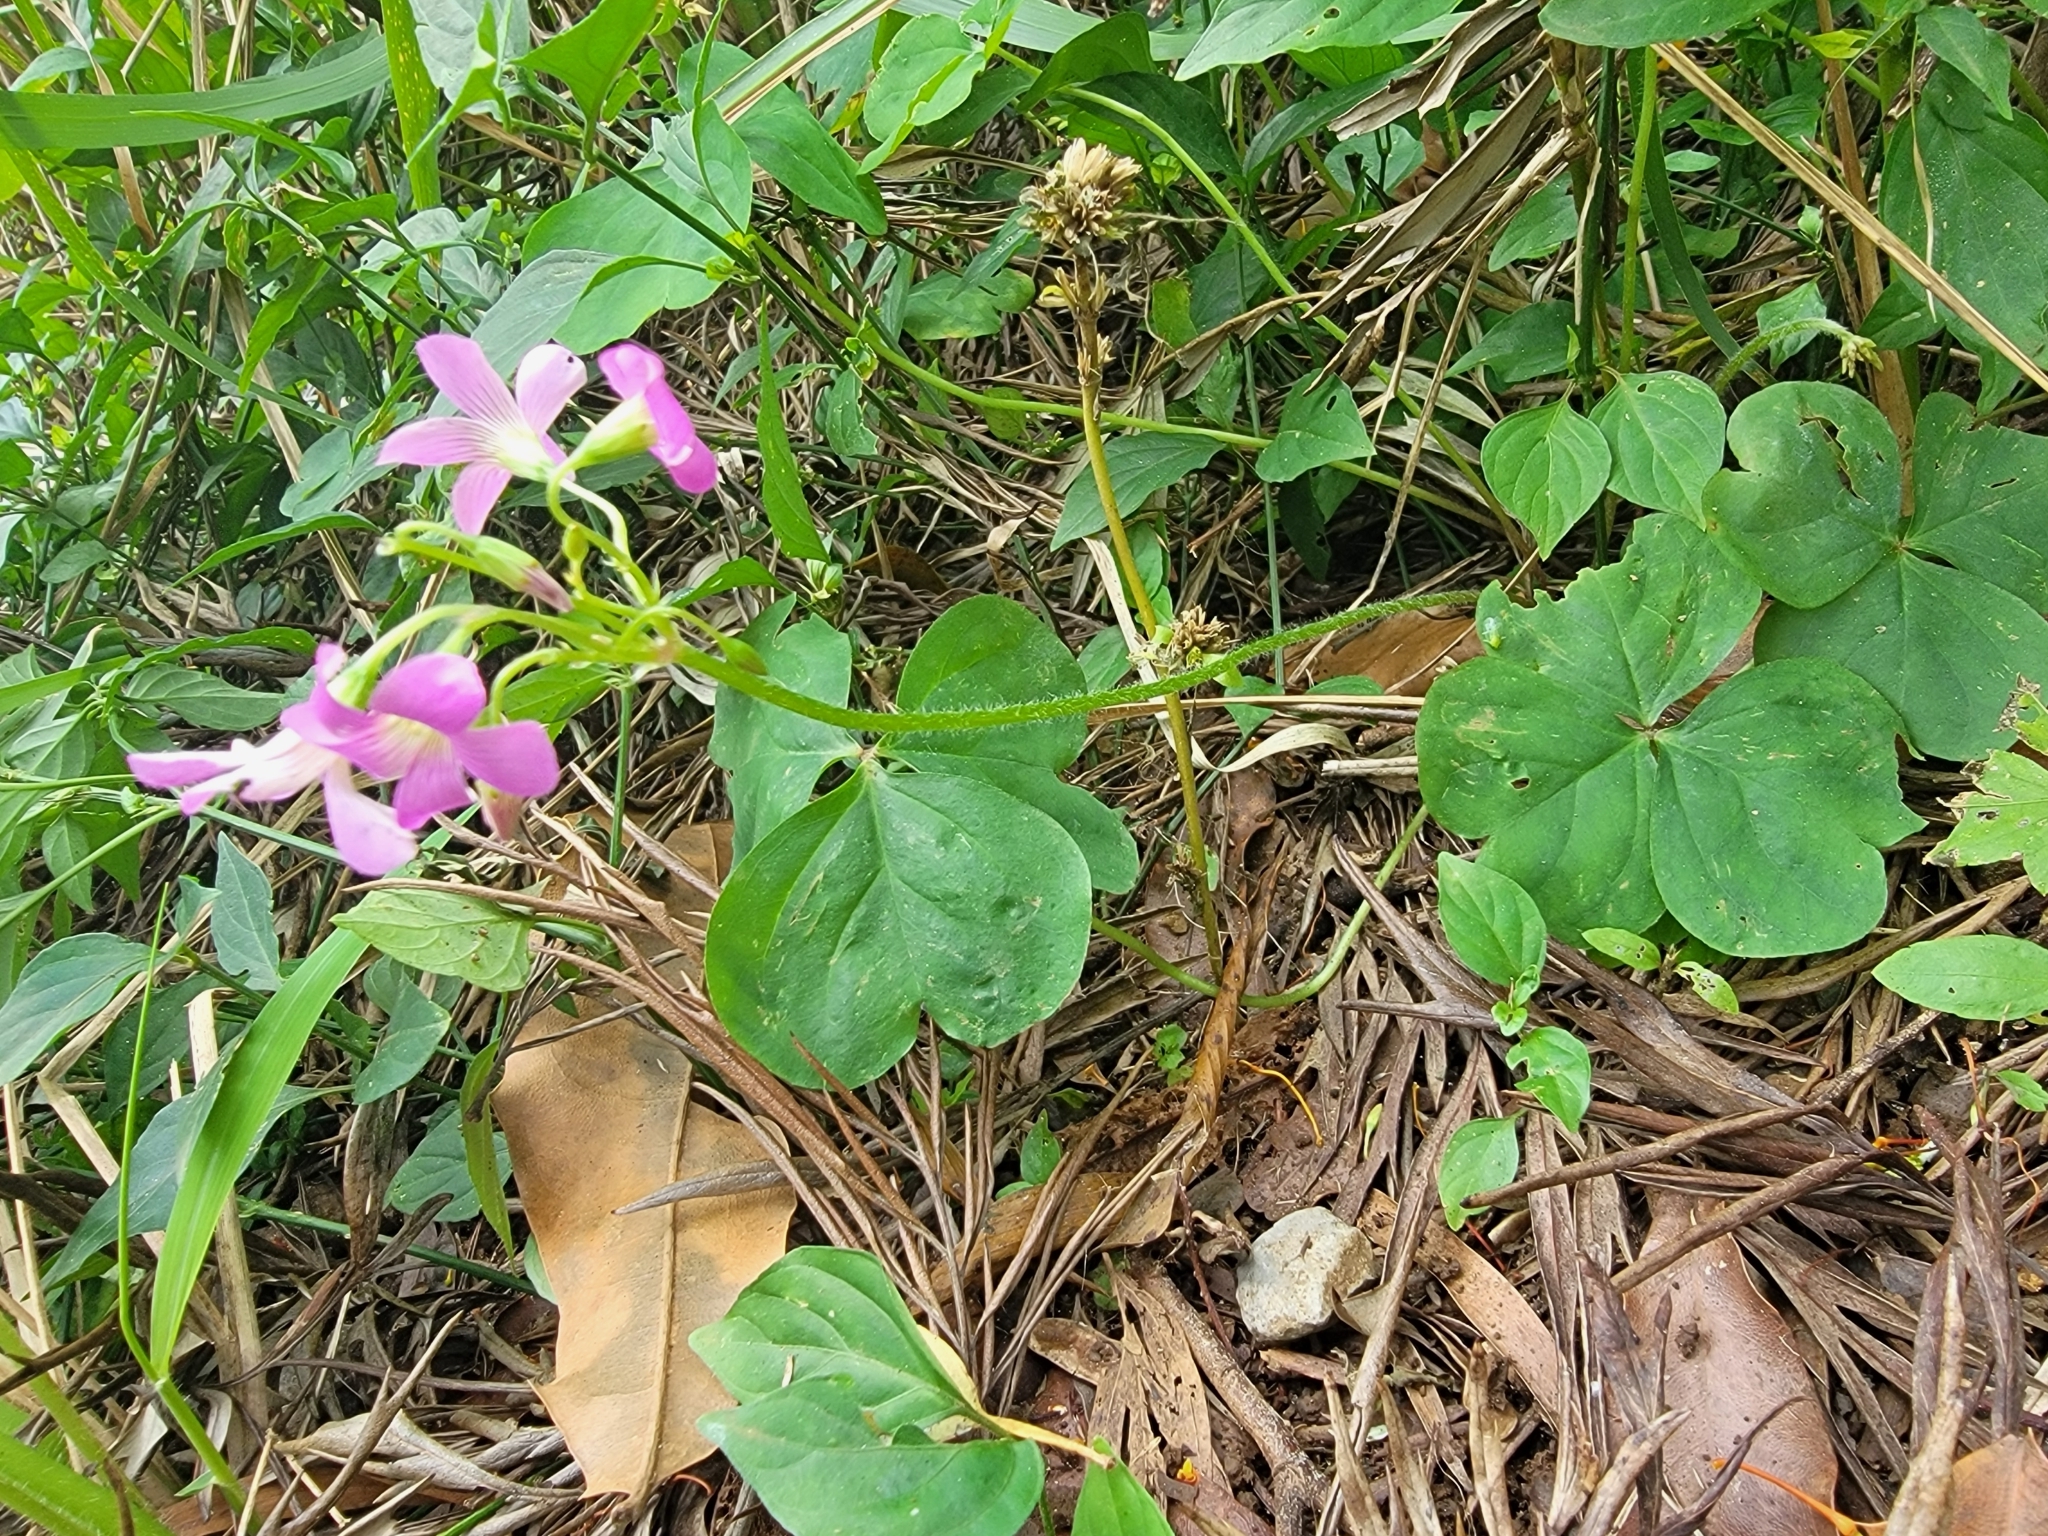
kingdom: Plantae
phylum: Tracheophyta
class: Magnoliopsida
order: Oxalidales
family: Oxalidaceae
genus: Oxalis
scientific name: Oxalis debilis
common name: Large-flowered pink-sorrel
